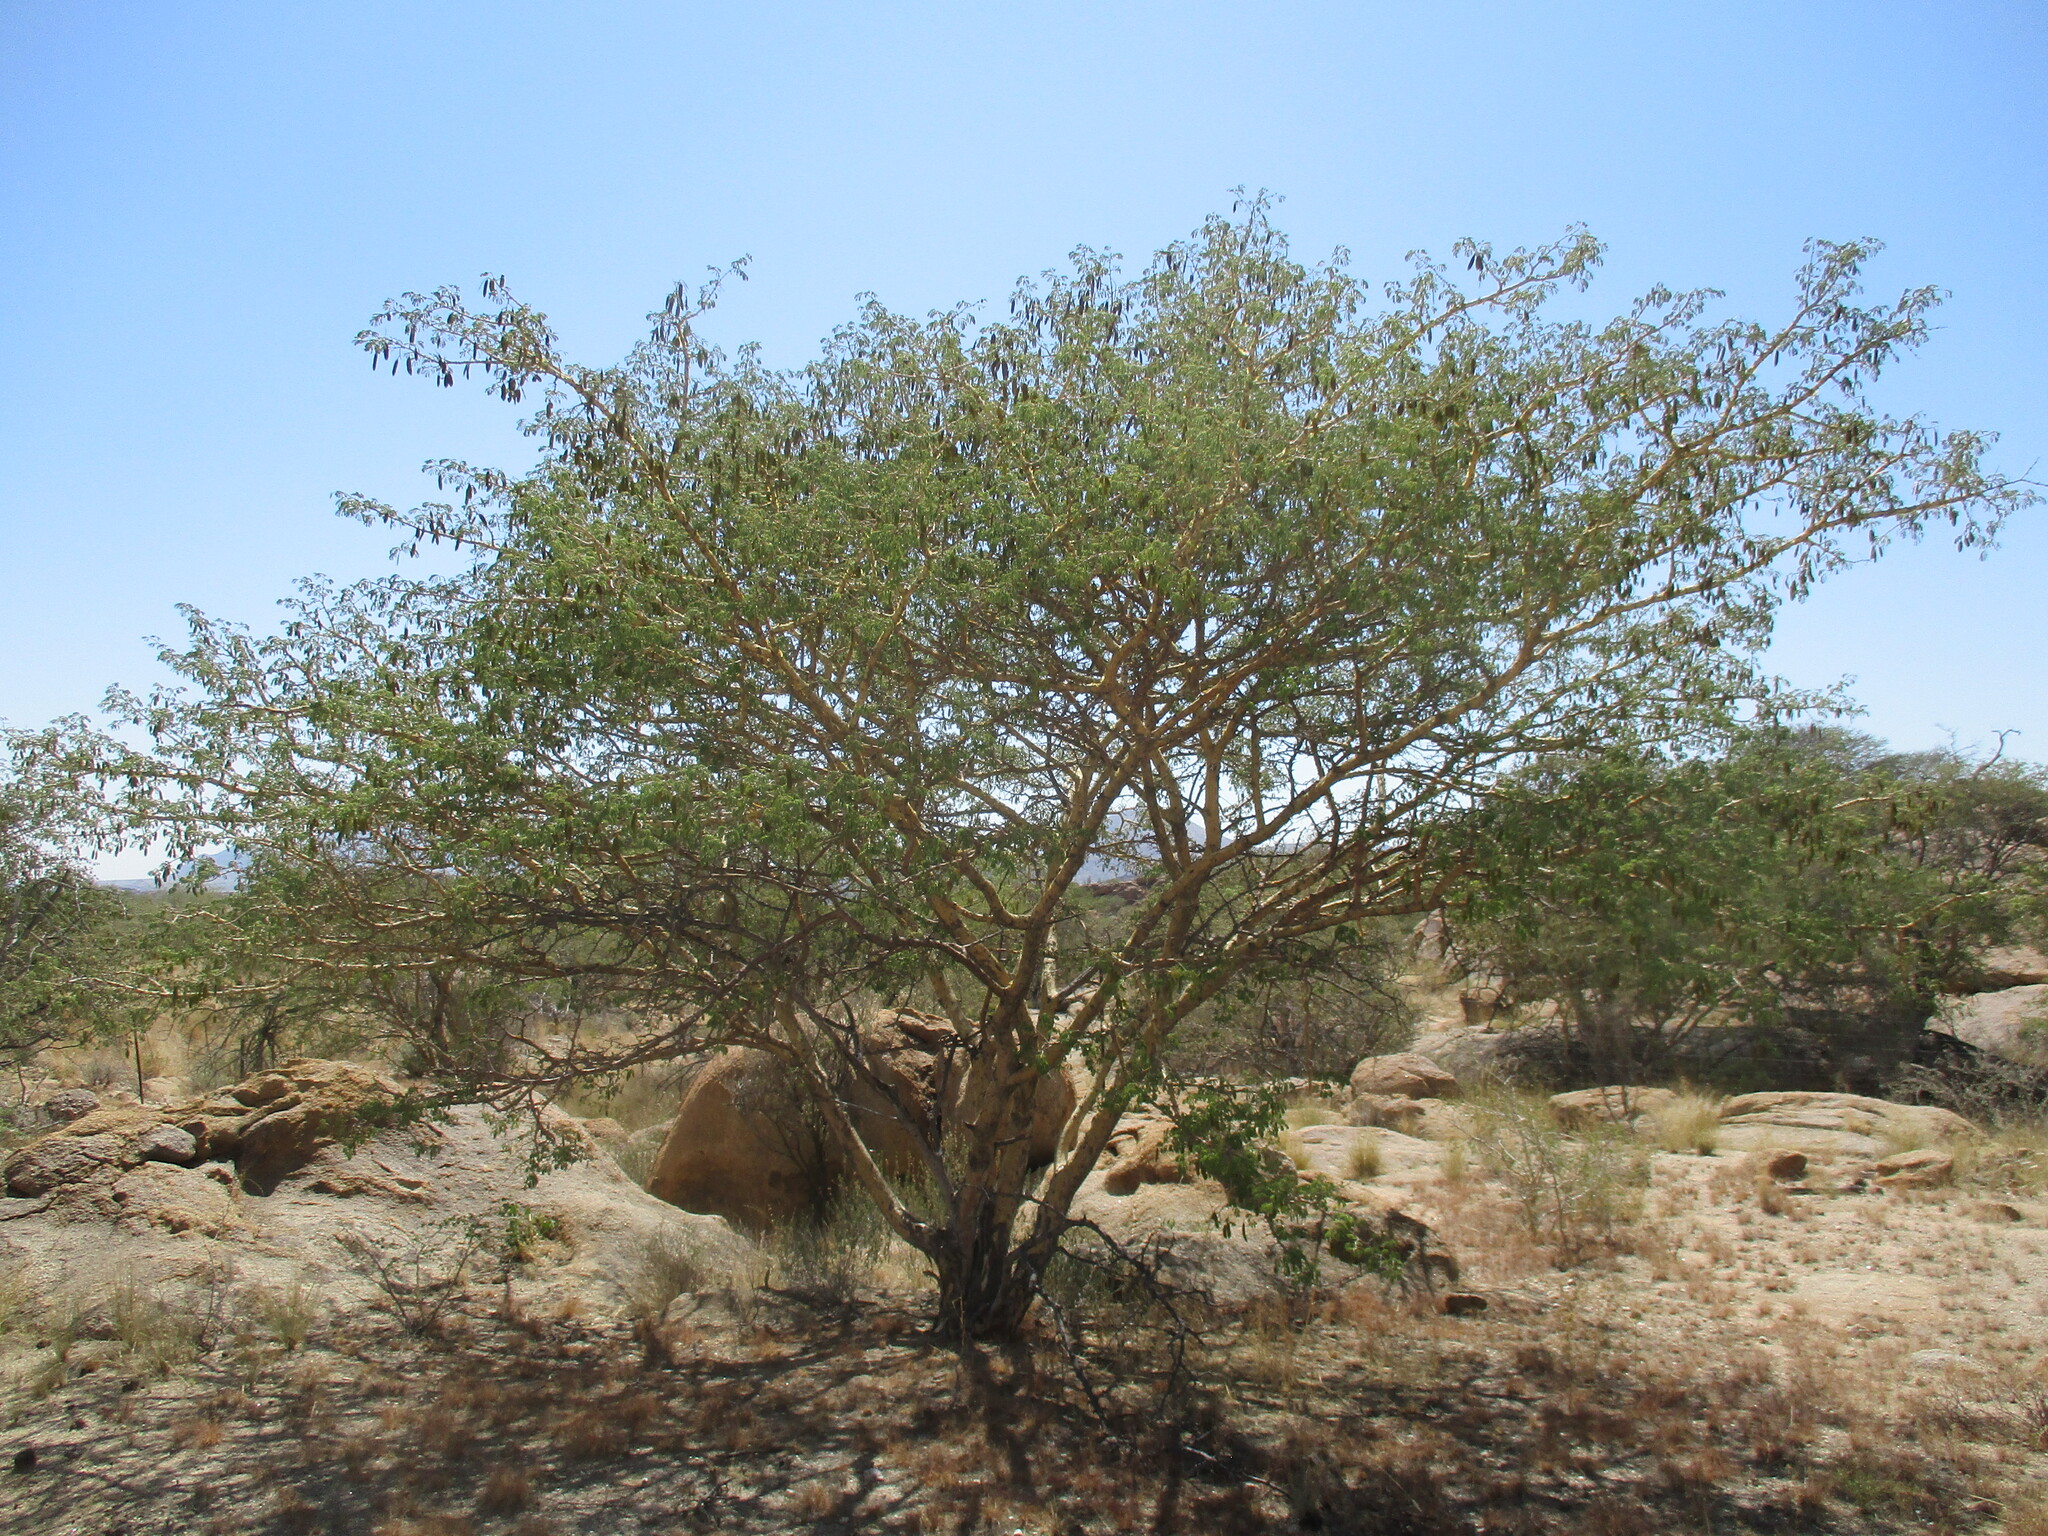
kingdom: Plantae
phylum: Tracheophyta
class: Magnoliopsida
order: Fabales
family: Fabaceae
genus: Senegalia
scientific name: Senegalia erubescens
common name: Bluethorn
